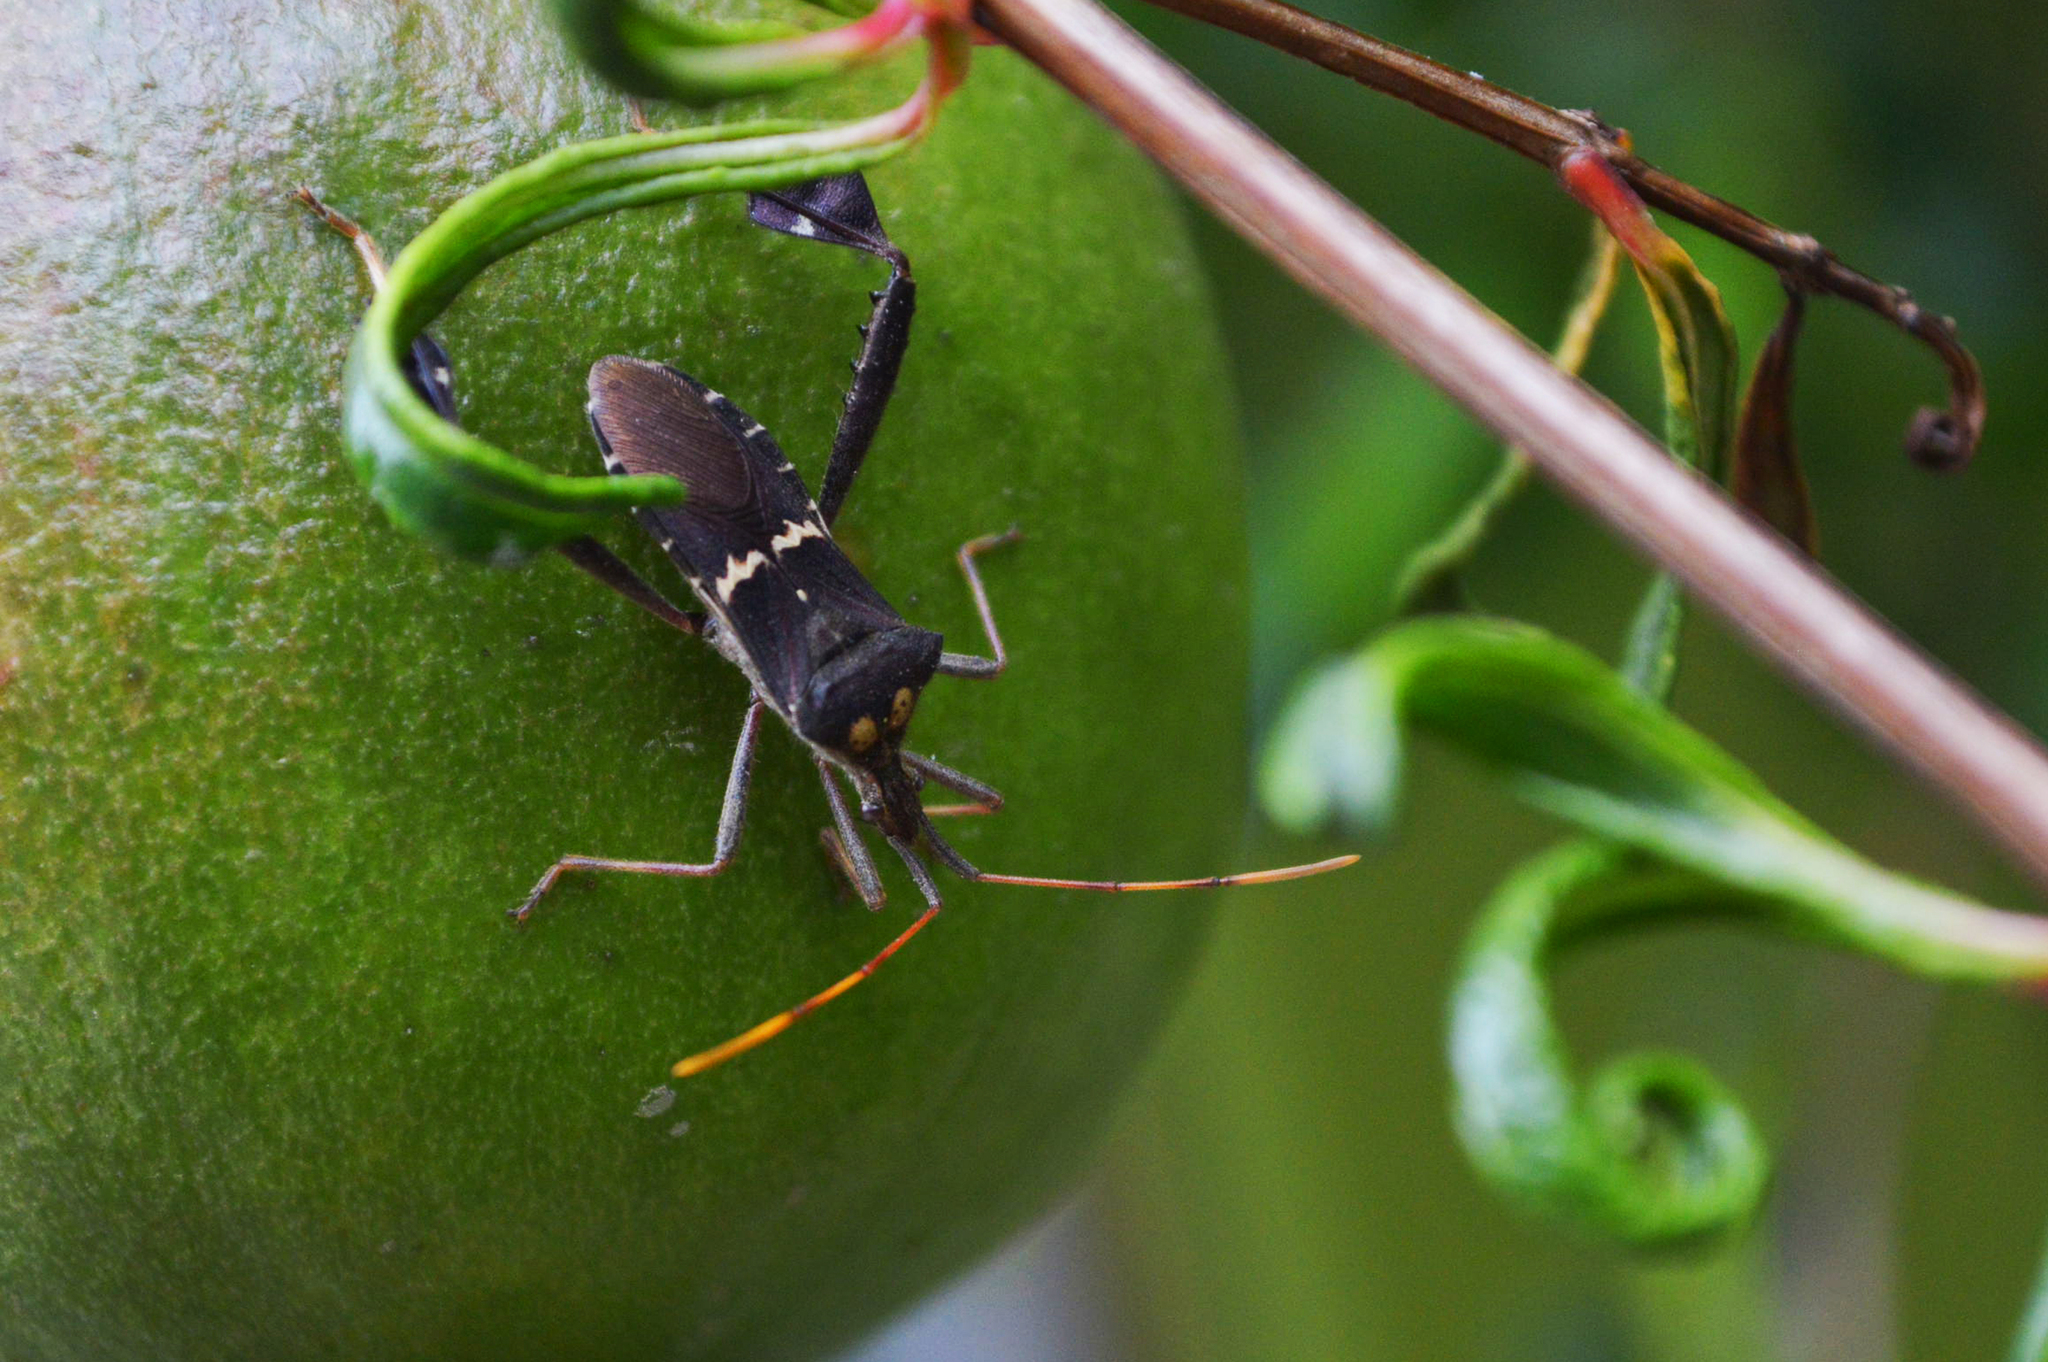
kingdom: Animalia
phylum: Arthropoda
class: Insecta
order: Hemiptera
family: Coreidae
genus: Leptoglossus
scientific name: Leptoglossus zonatus
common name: Large-legged bug
